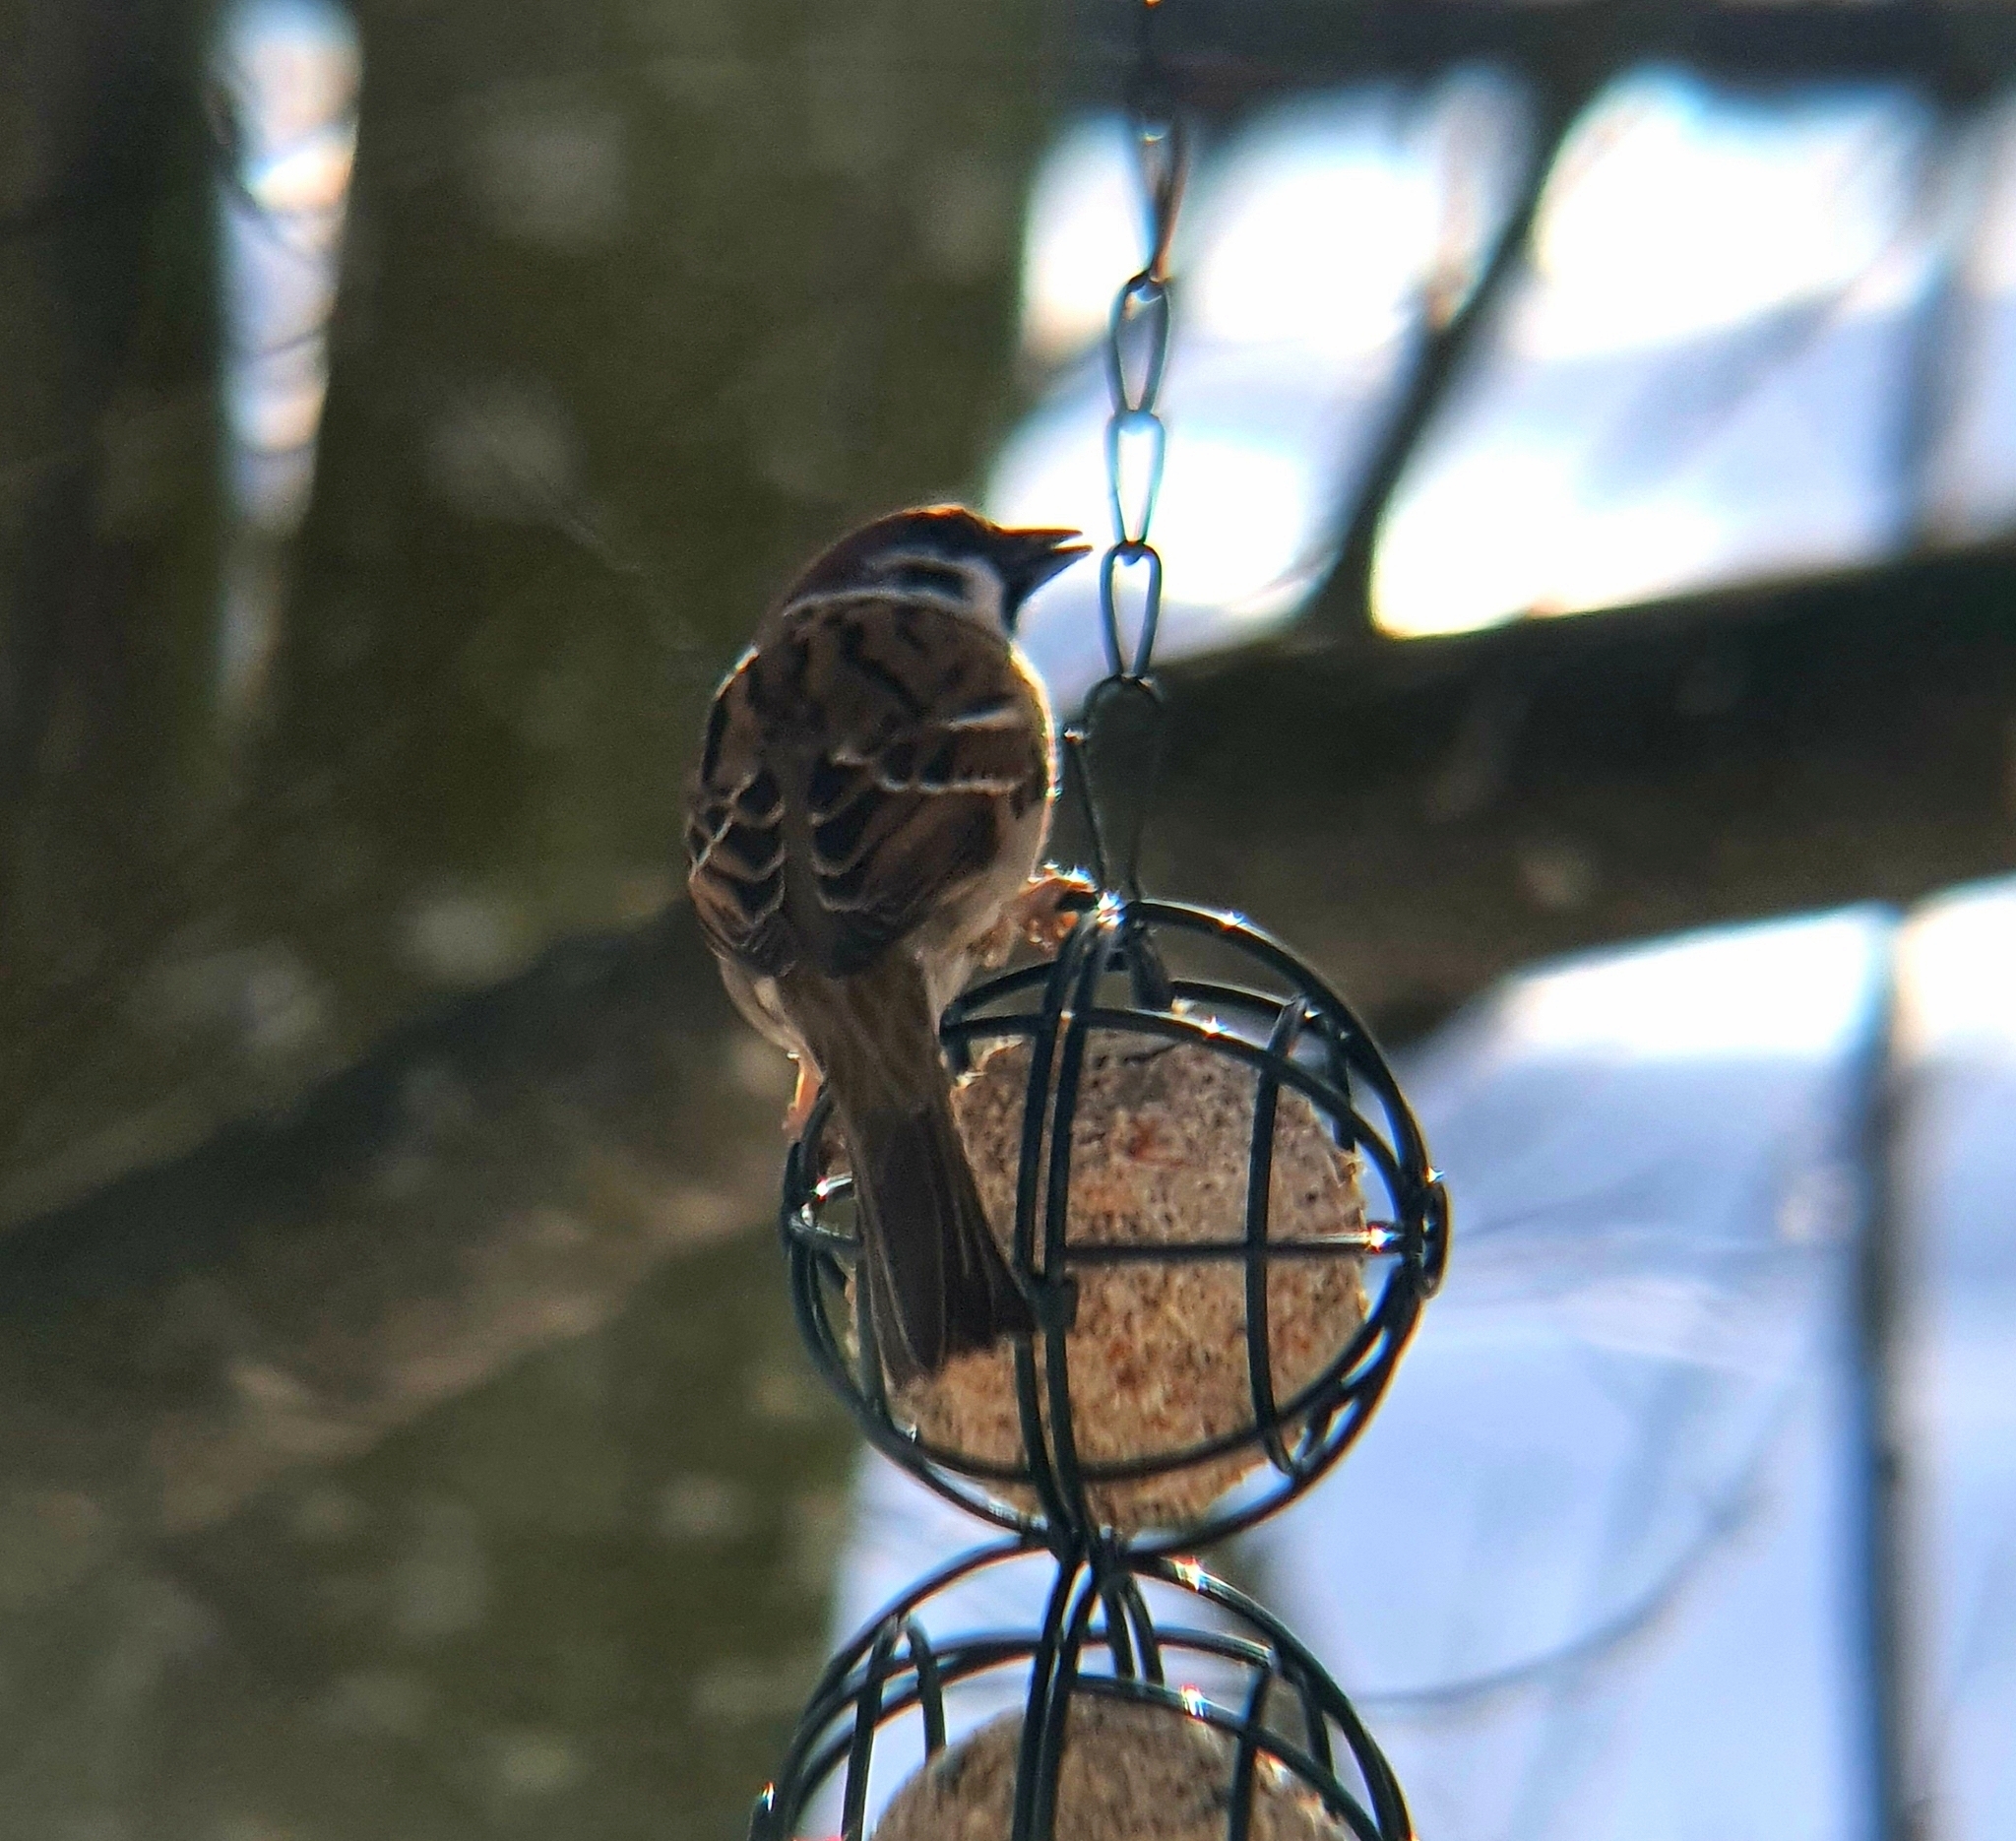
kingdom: Animalia
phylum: Chordata
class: Aves
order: Passeriformes
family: Passeridae
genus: Passer
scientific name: Passer montanus
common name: Eurasian tree sparrow
